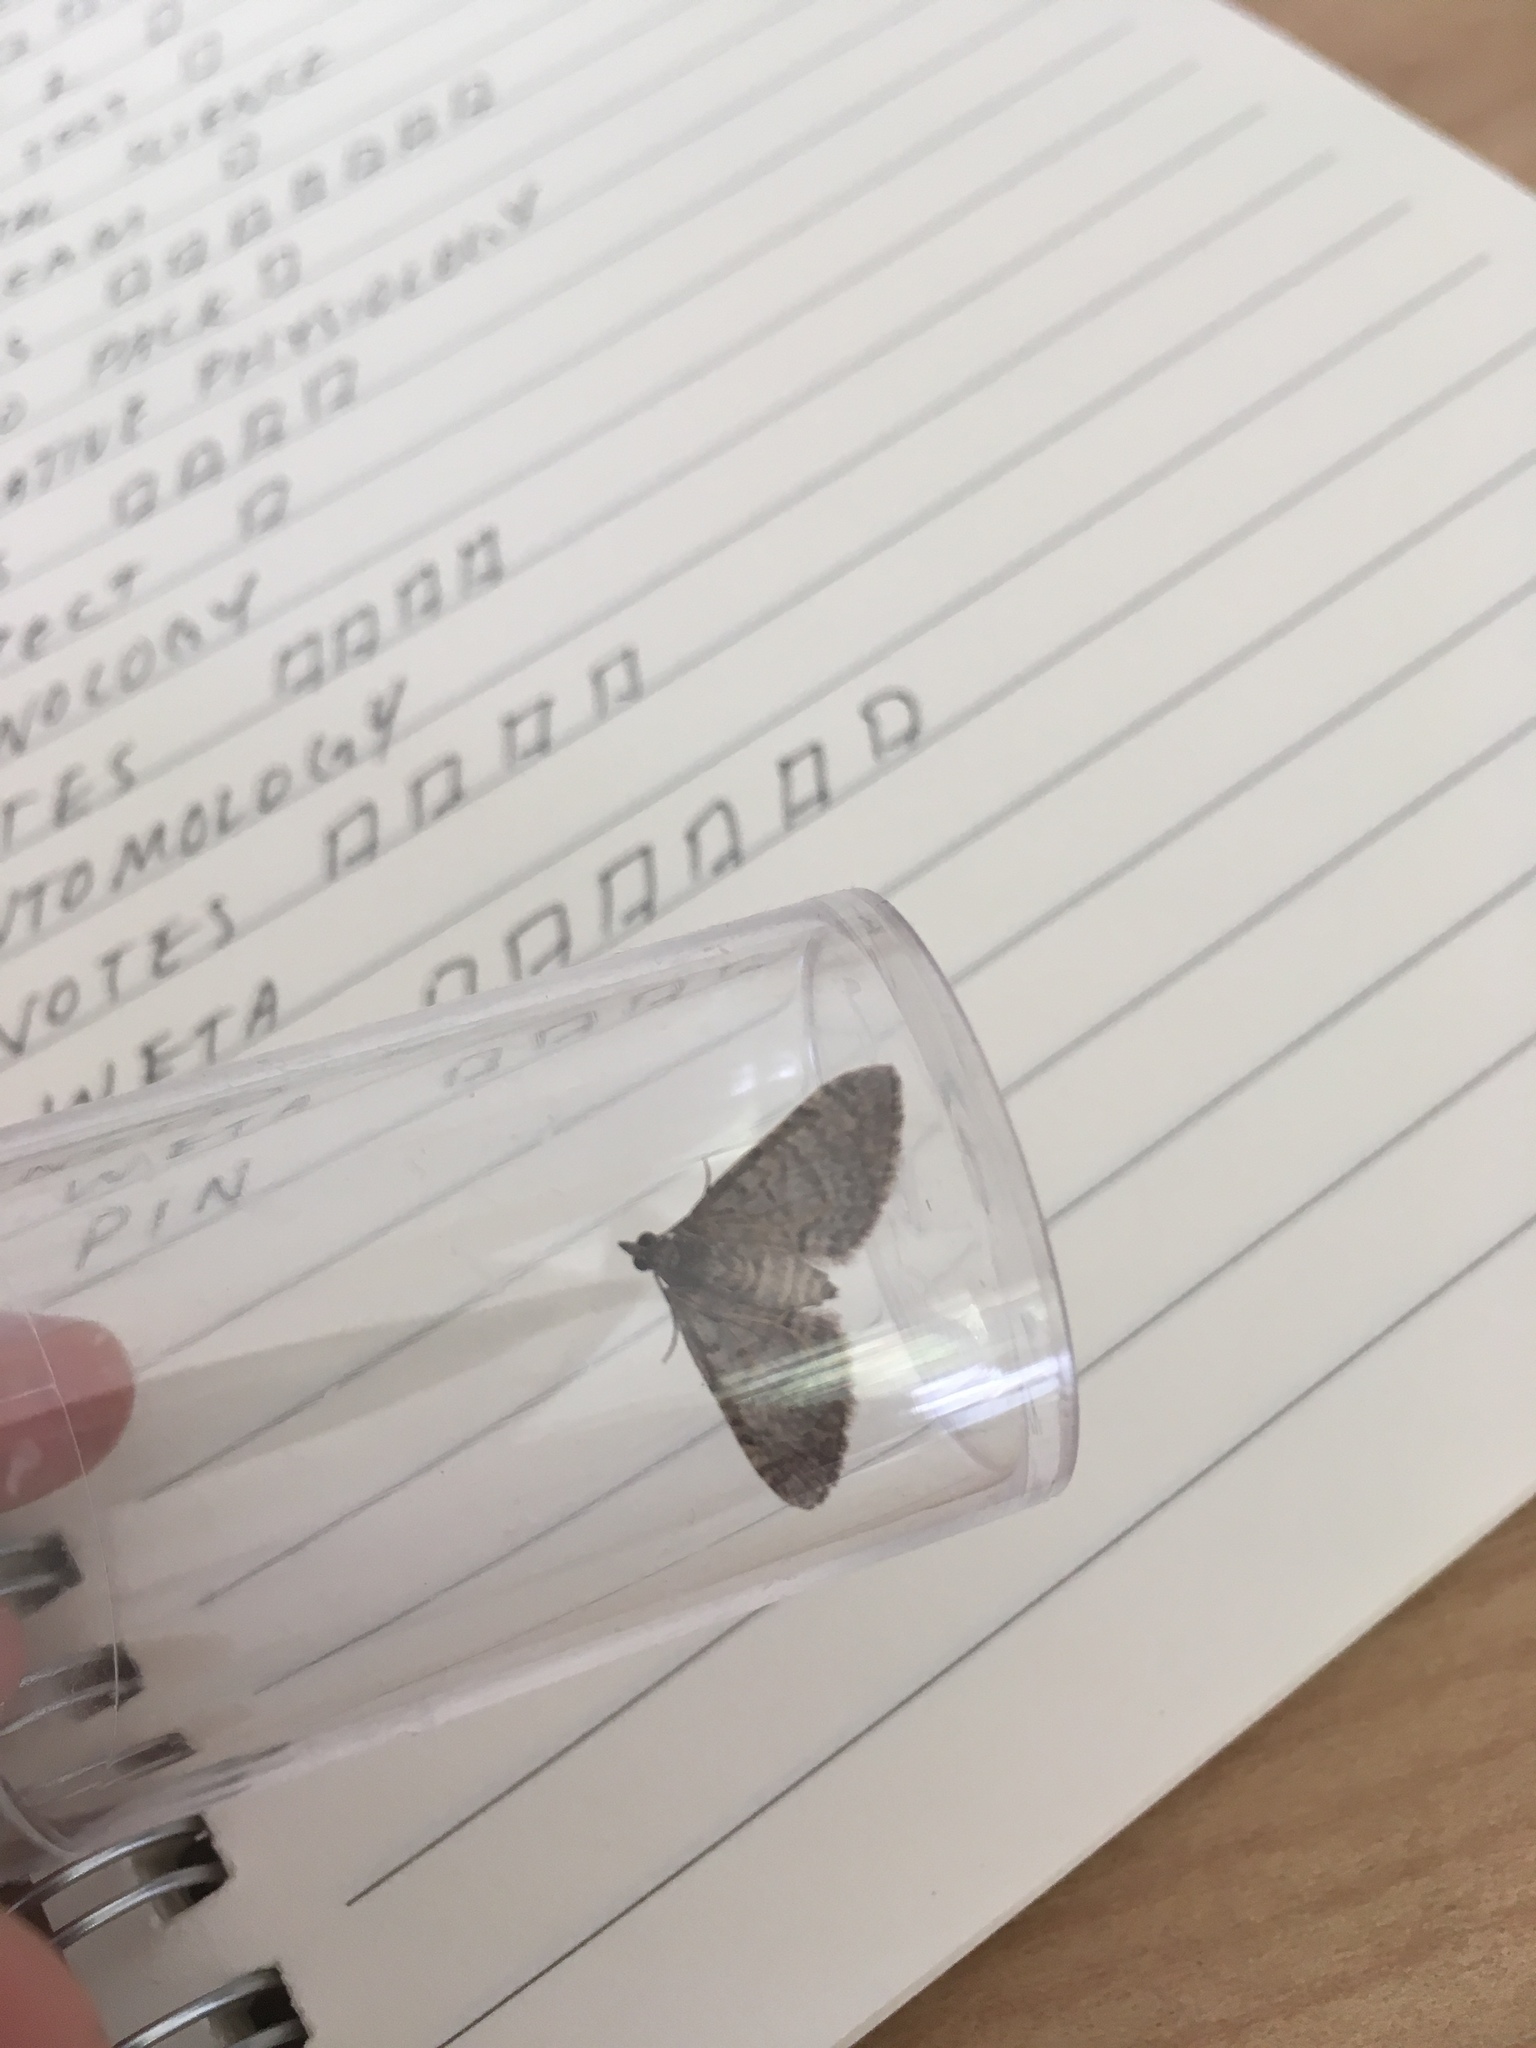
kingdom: Animalia
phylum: Arthropoda
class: Insecta
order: Lepidoptera
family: Geometridae
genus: Phrissogonus
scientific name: Phrissogonus laticostata
